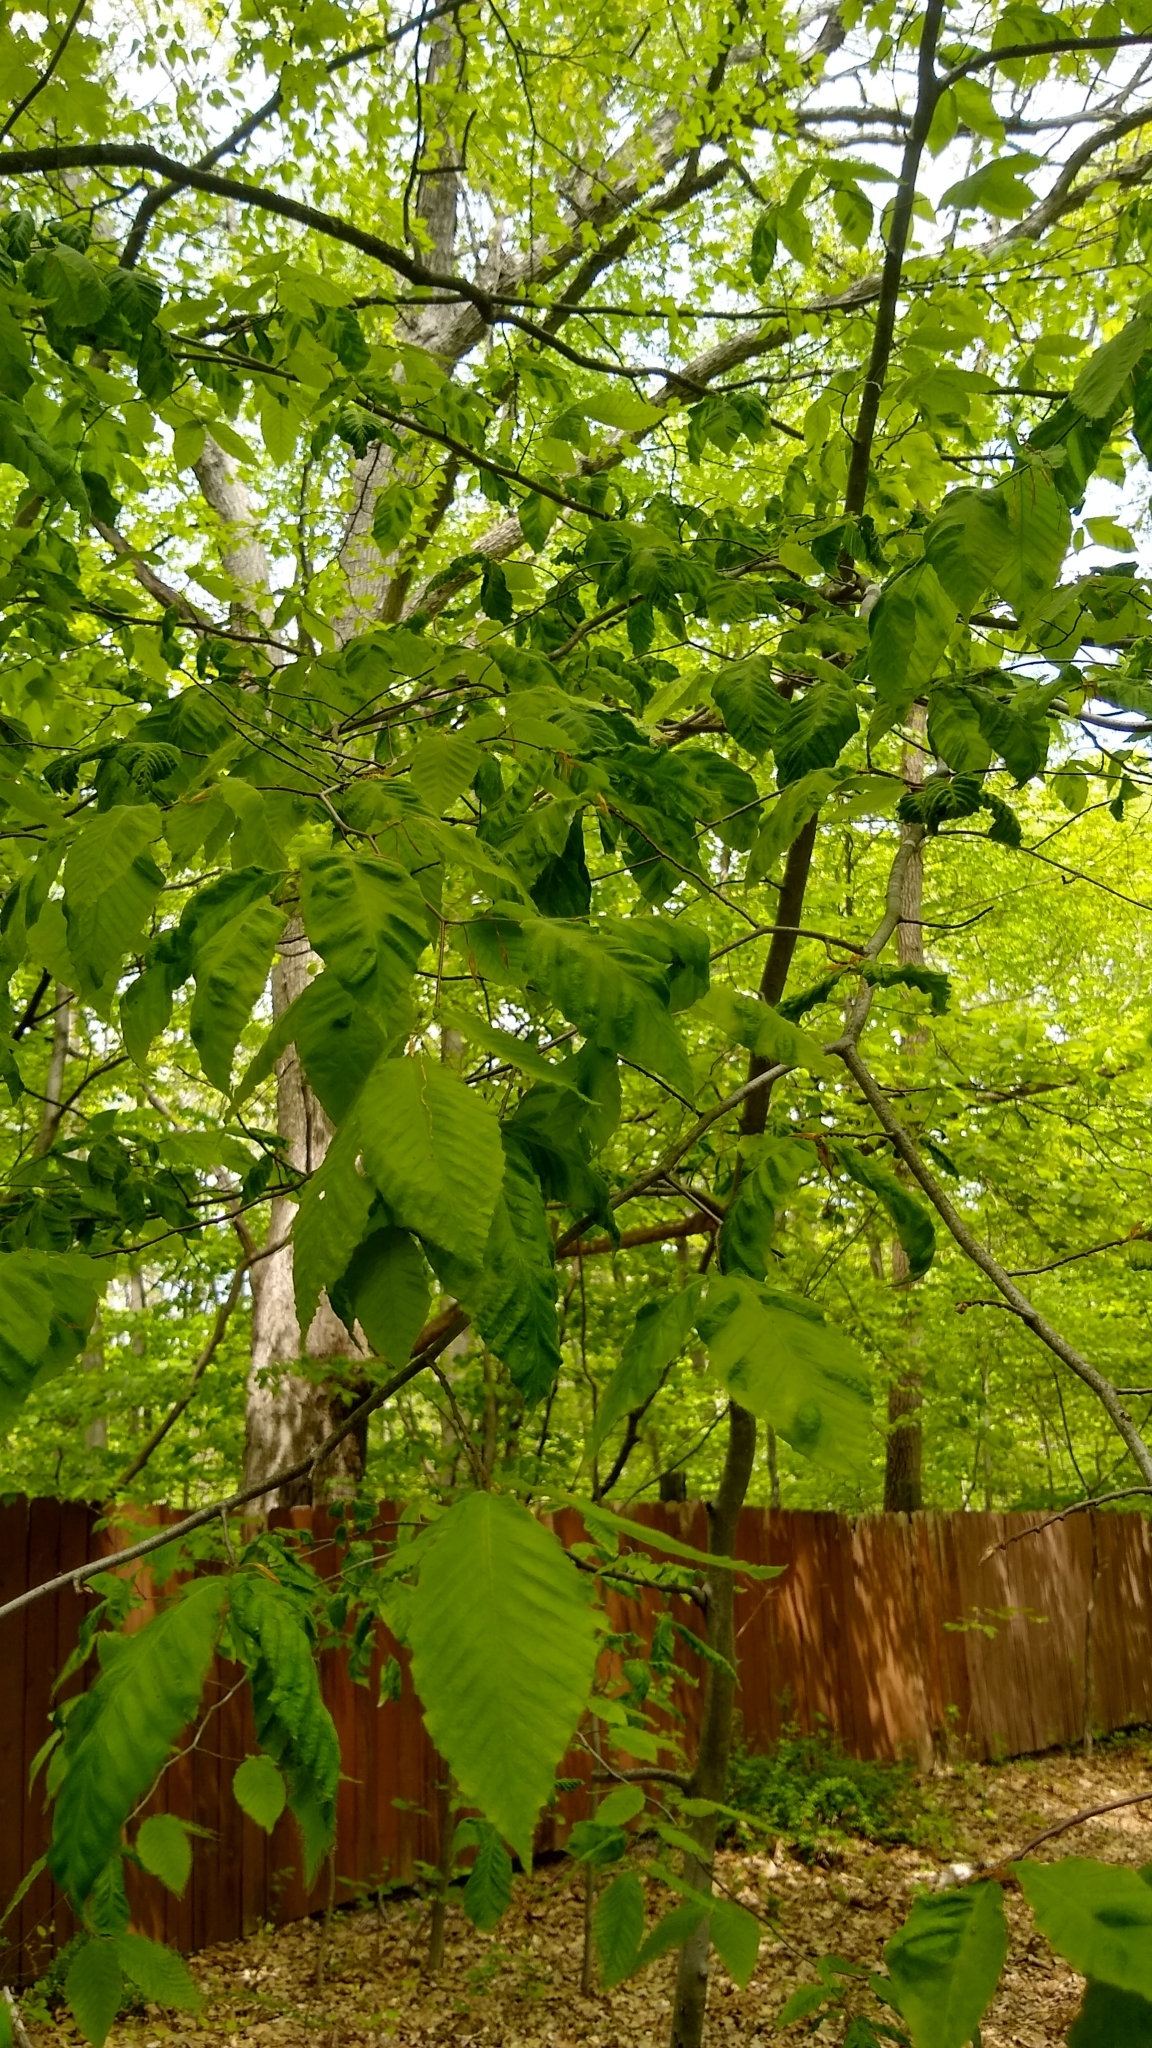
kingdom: Animalia
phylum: Nematoda
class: Chromadorea
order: Rhabditida
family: Anguinidae
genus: Litylenchus
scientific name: Litylenchus crenatae
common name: Beech leaf disease
